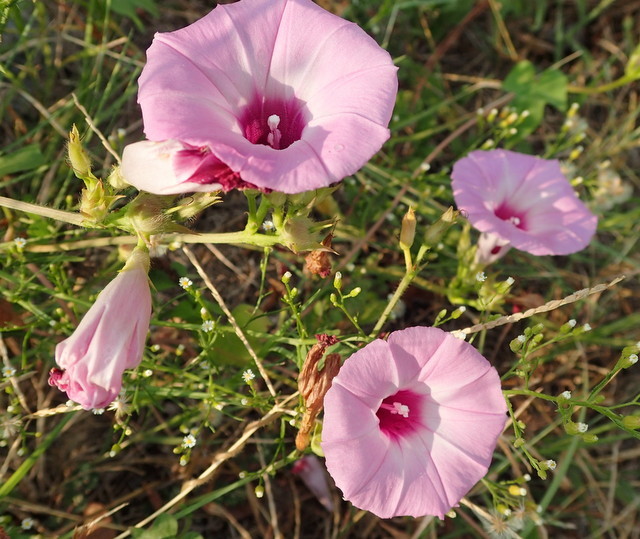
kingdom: Plantae
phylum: Tracheophyta
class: Magnoliopsida
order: Solanales
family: Convolvulaceae
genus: Ipomoea
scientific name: Ipomoea cordatotriloba
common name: Cotton morning glory
